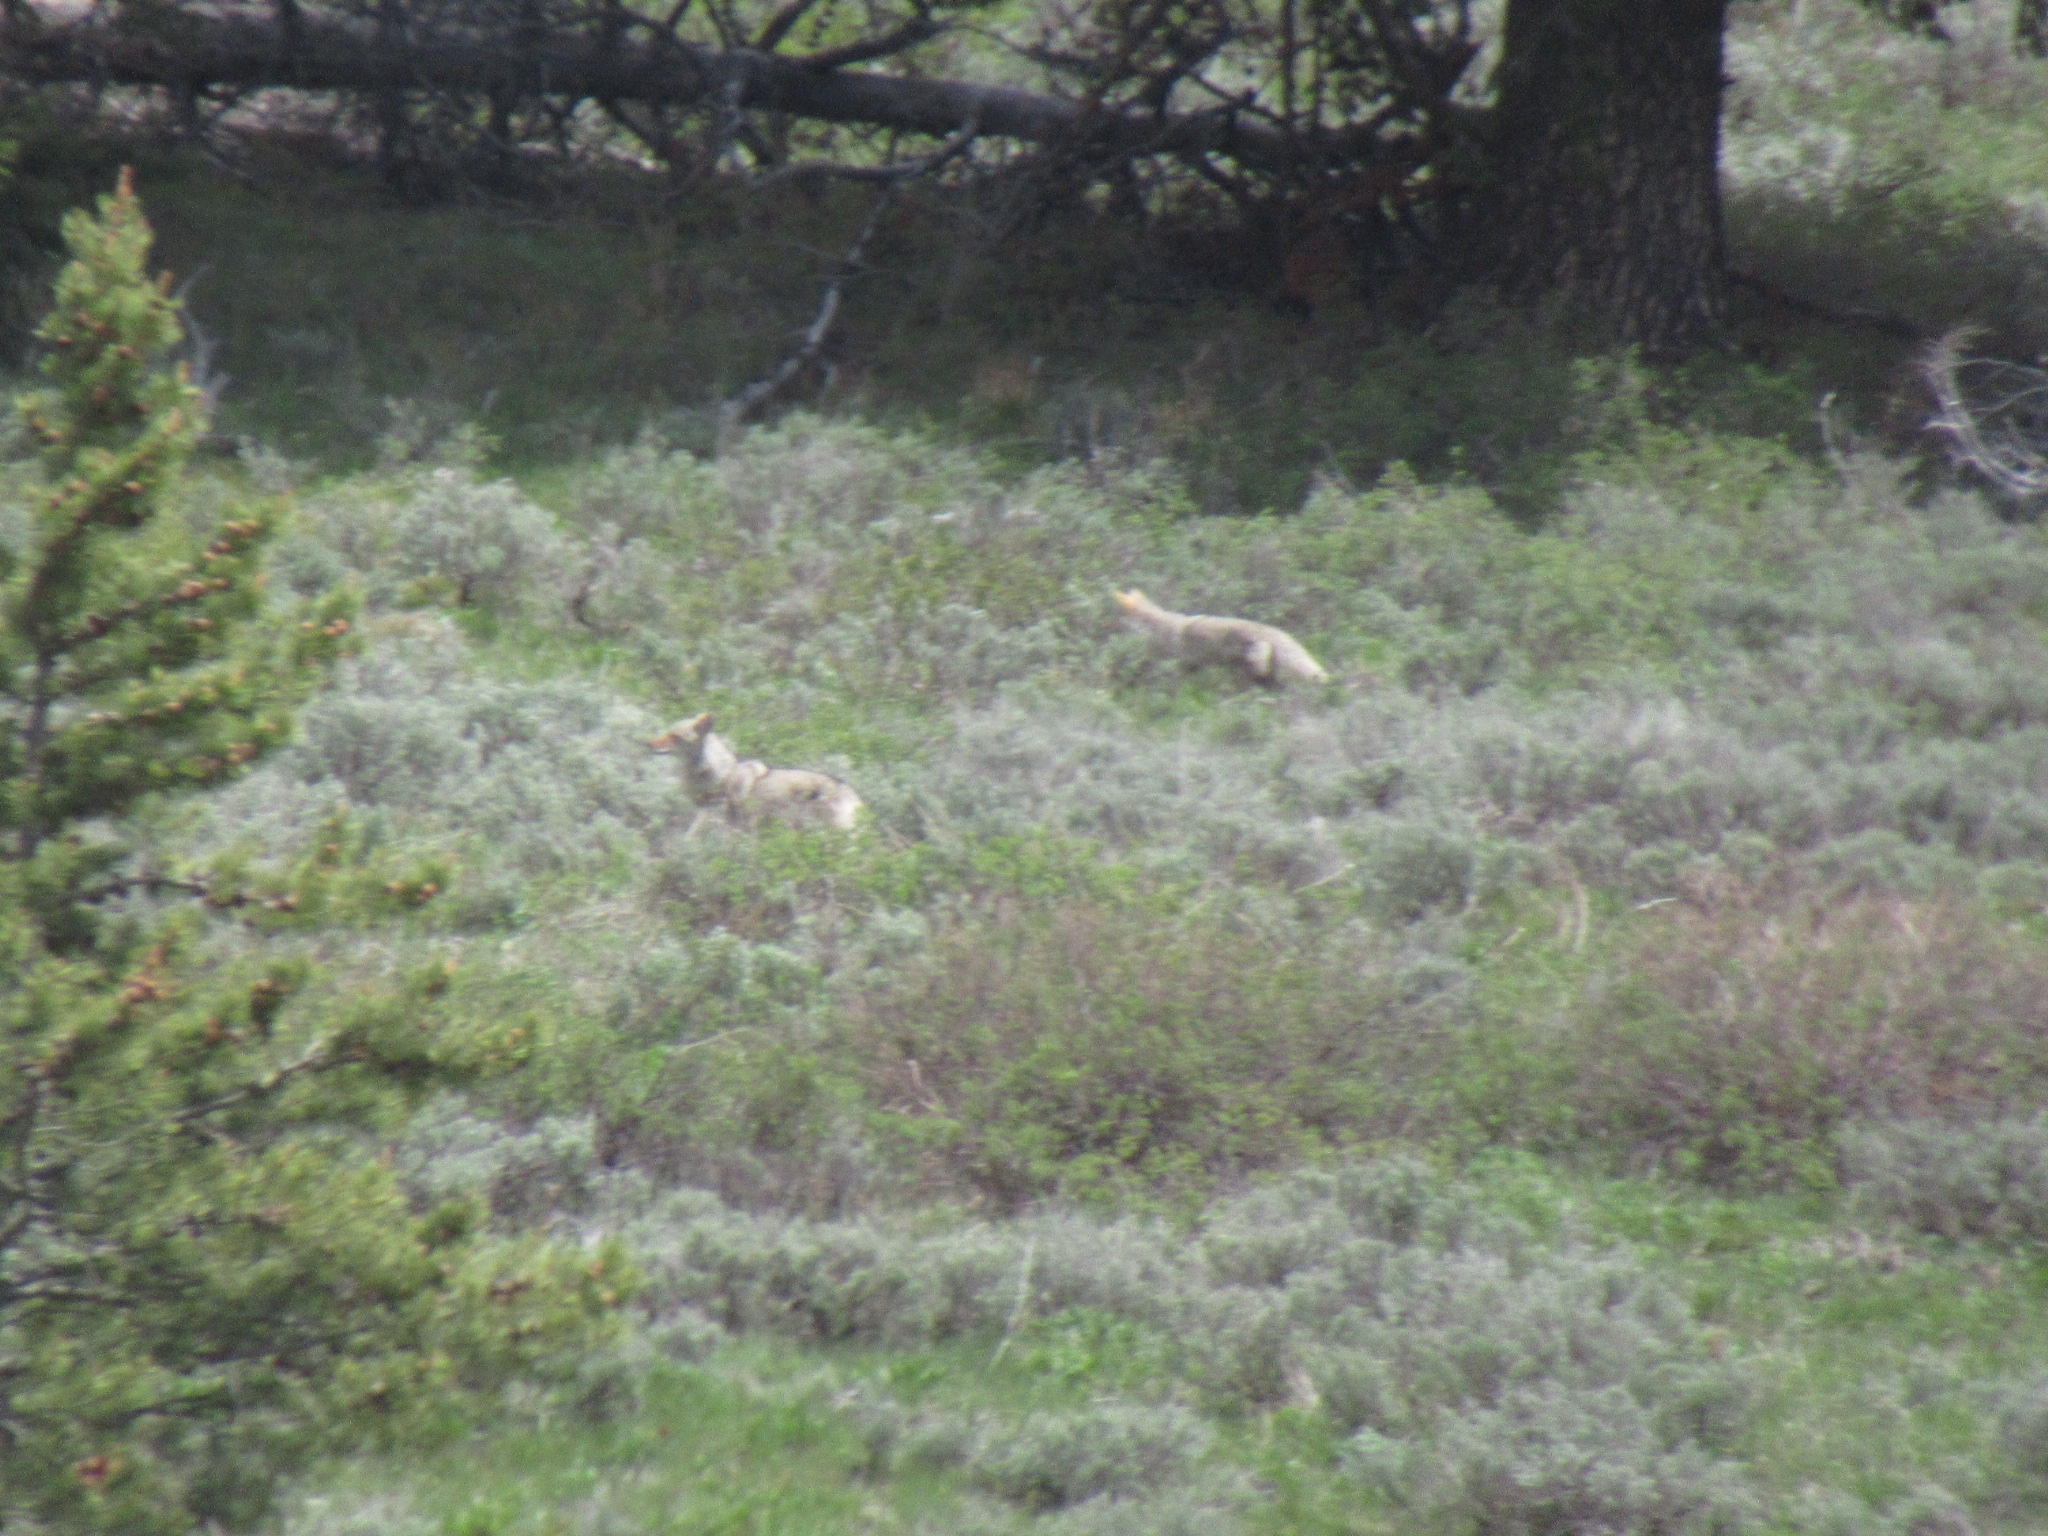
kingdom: Animalia
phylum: Chordata
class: Mammalia
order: Carnivora
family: Canidae
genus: Canis
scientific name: Canis latrans
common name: Coyote
